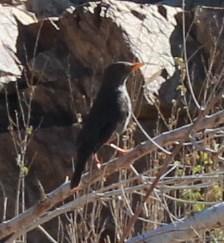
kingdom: Animalia
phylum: Chordata
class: Aves
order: Passeriformes
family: Turdidae
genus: Turdus
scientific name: Turdus smithi
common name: Karoo thrush
